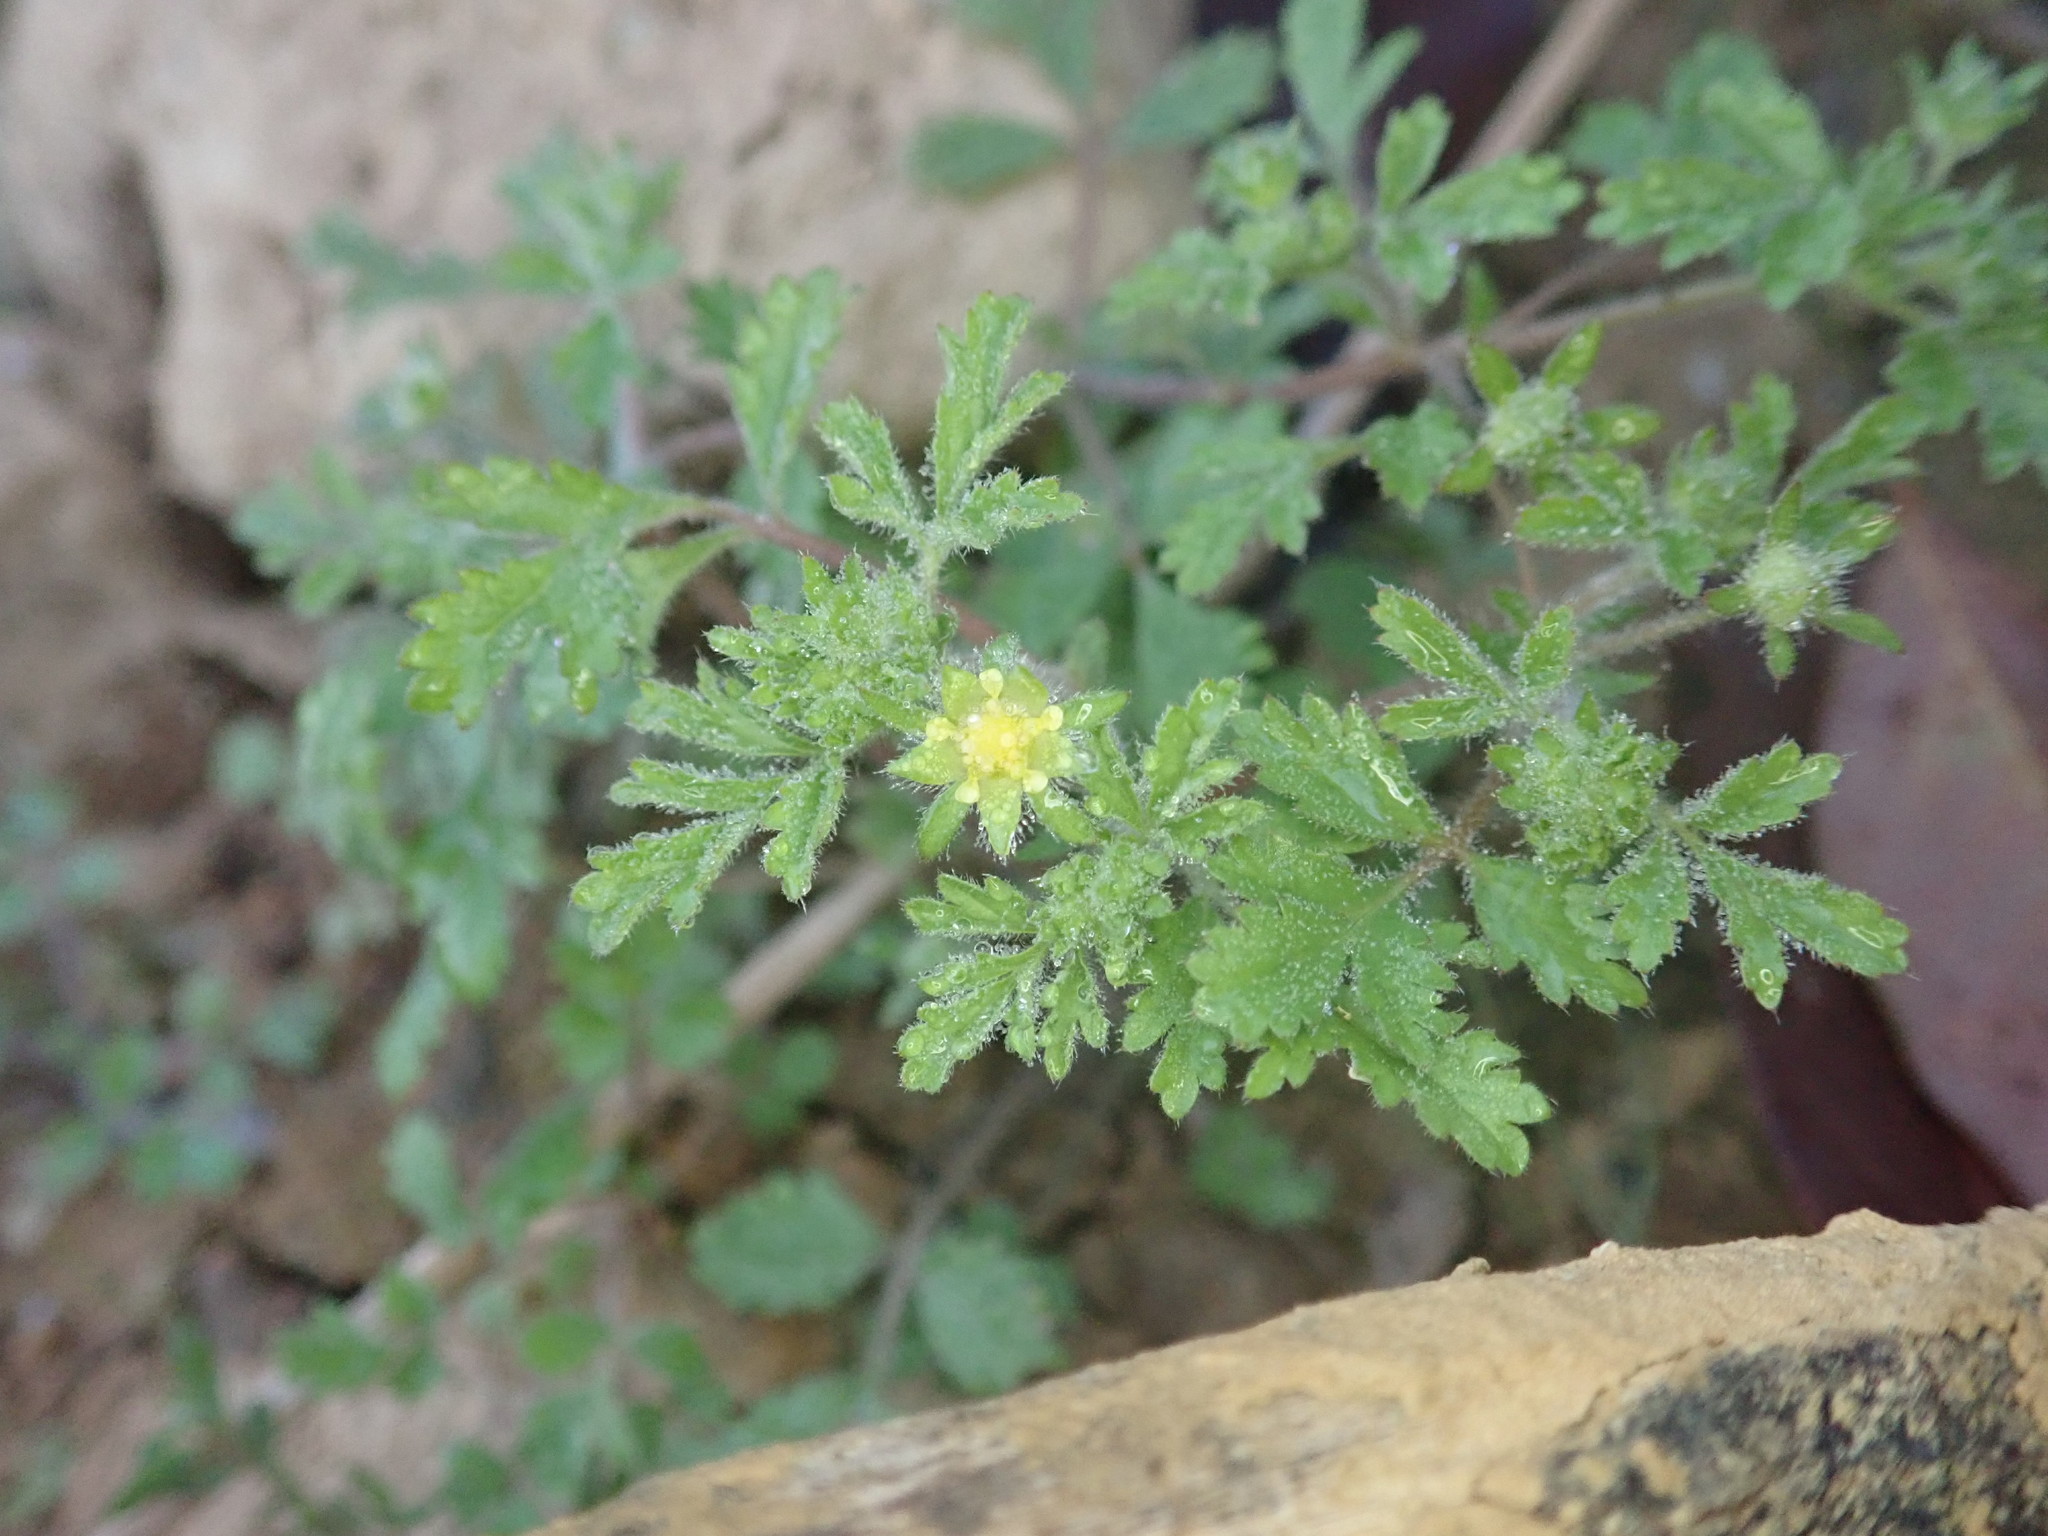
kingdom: Plantae
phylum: Tracheophyta
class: Magnoliopsida
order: Rosales
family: Rosaceae
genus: Potentilla
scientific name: Potentilla heynei
